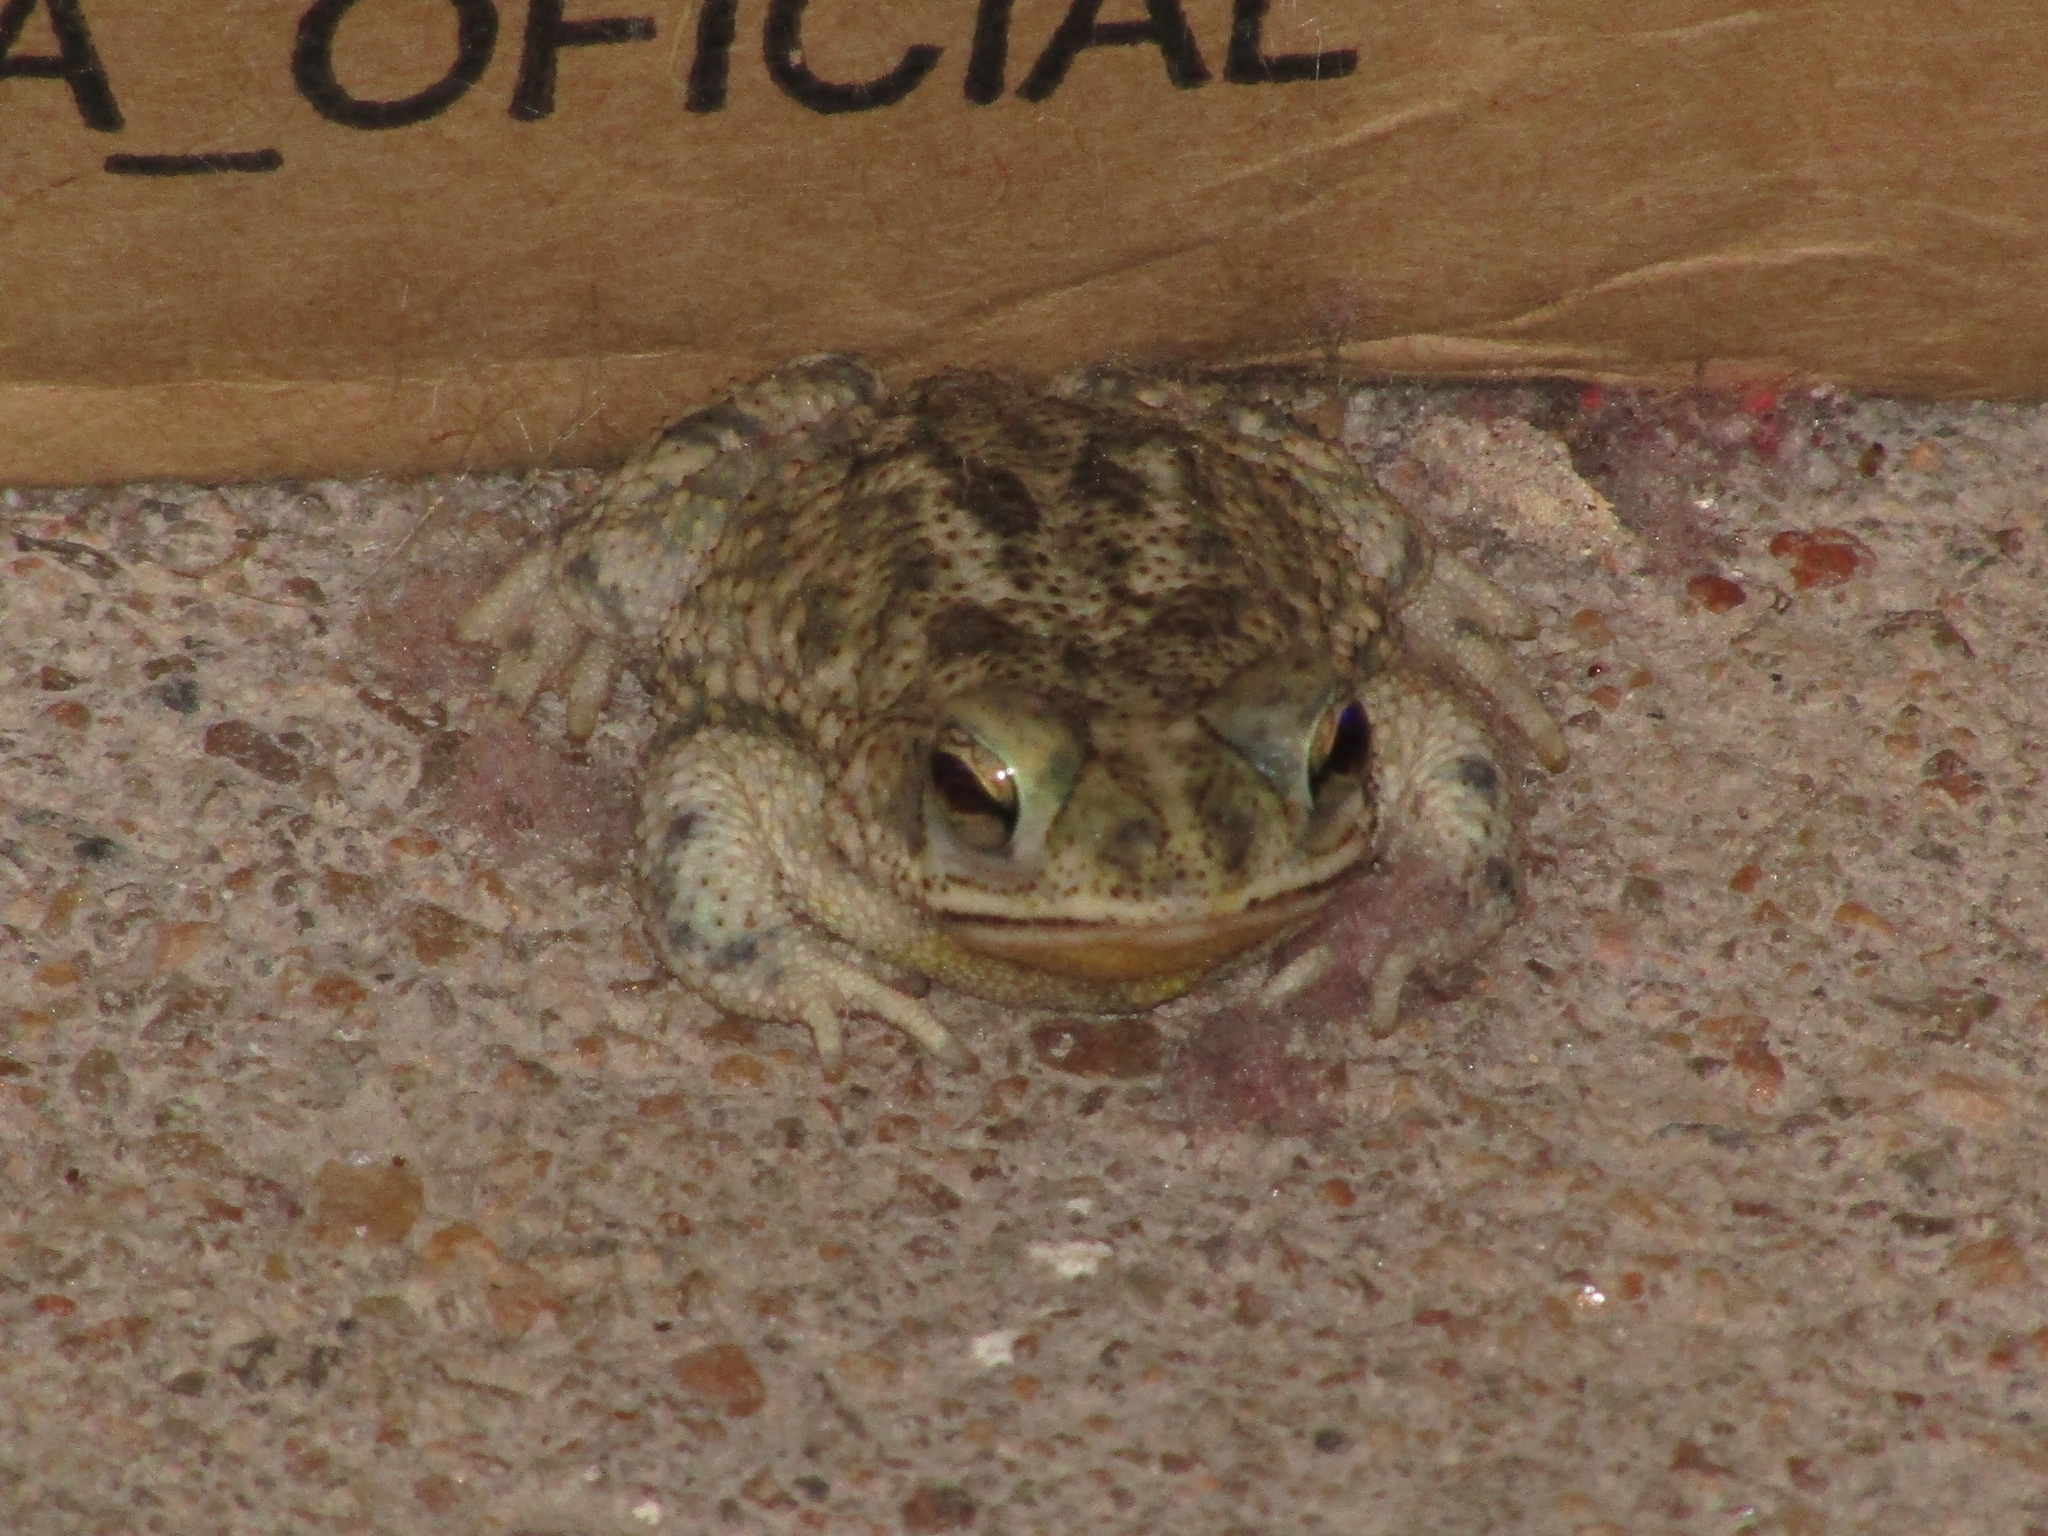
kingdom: Animalia
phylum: Chordata
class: Amphibia
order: Anura
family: Bufonidae
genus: Rhinella
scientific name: Rhinella granulosa
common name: Common lesser toad
